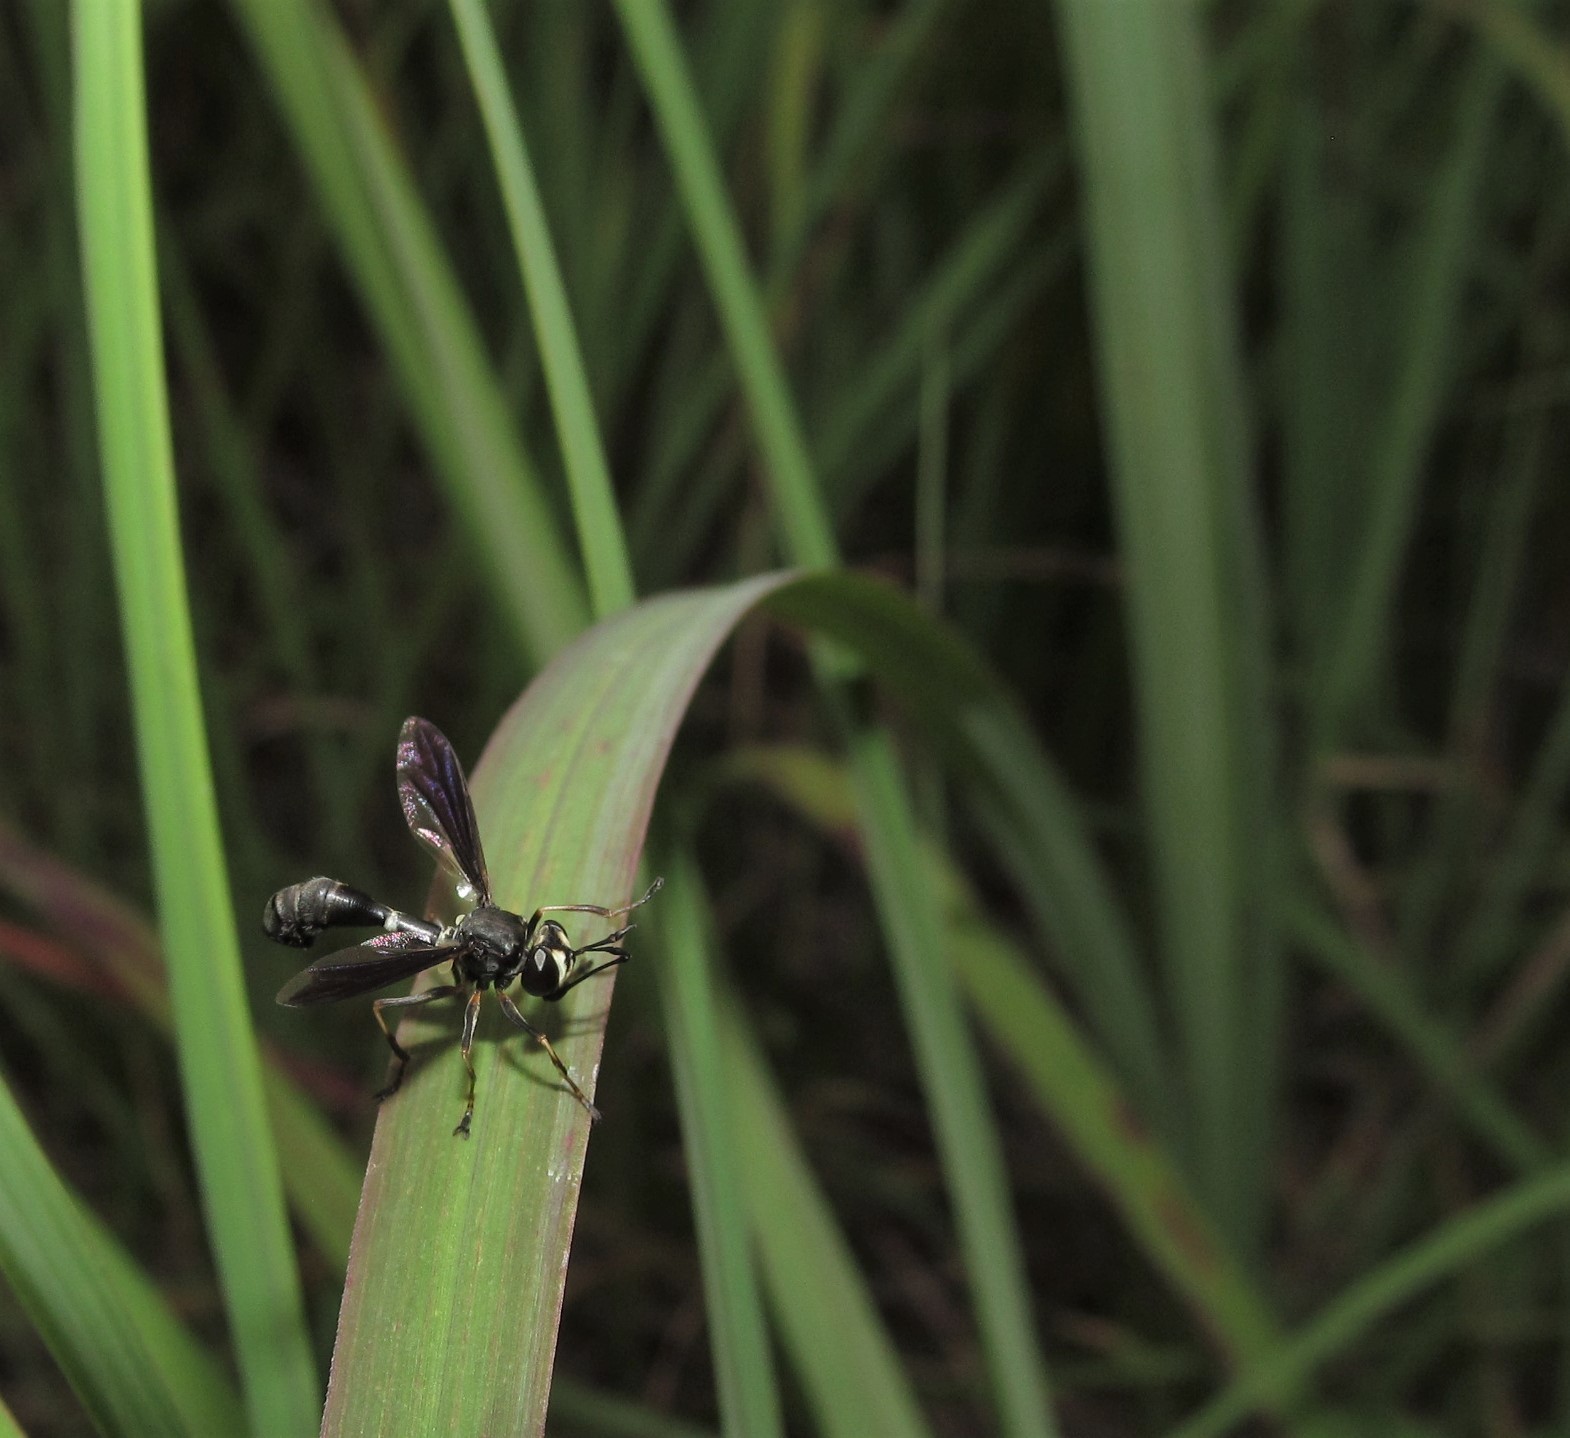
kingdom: Animalia
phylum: Arthropoda
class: Insecta
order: Diptera
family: Conopidae
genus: Physocephala
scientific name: Physocephala tibialis
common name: Common eastern physocephala
